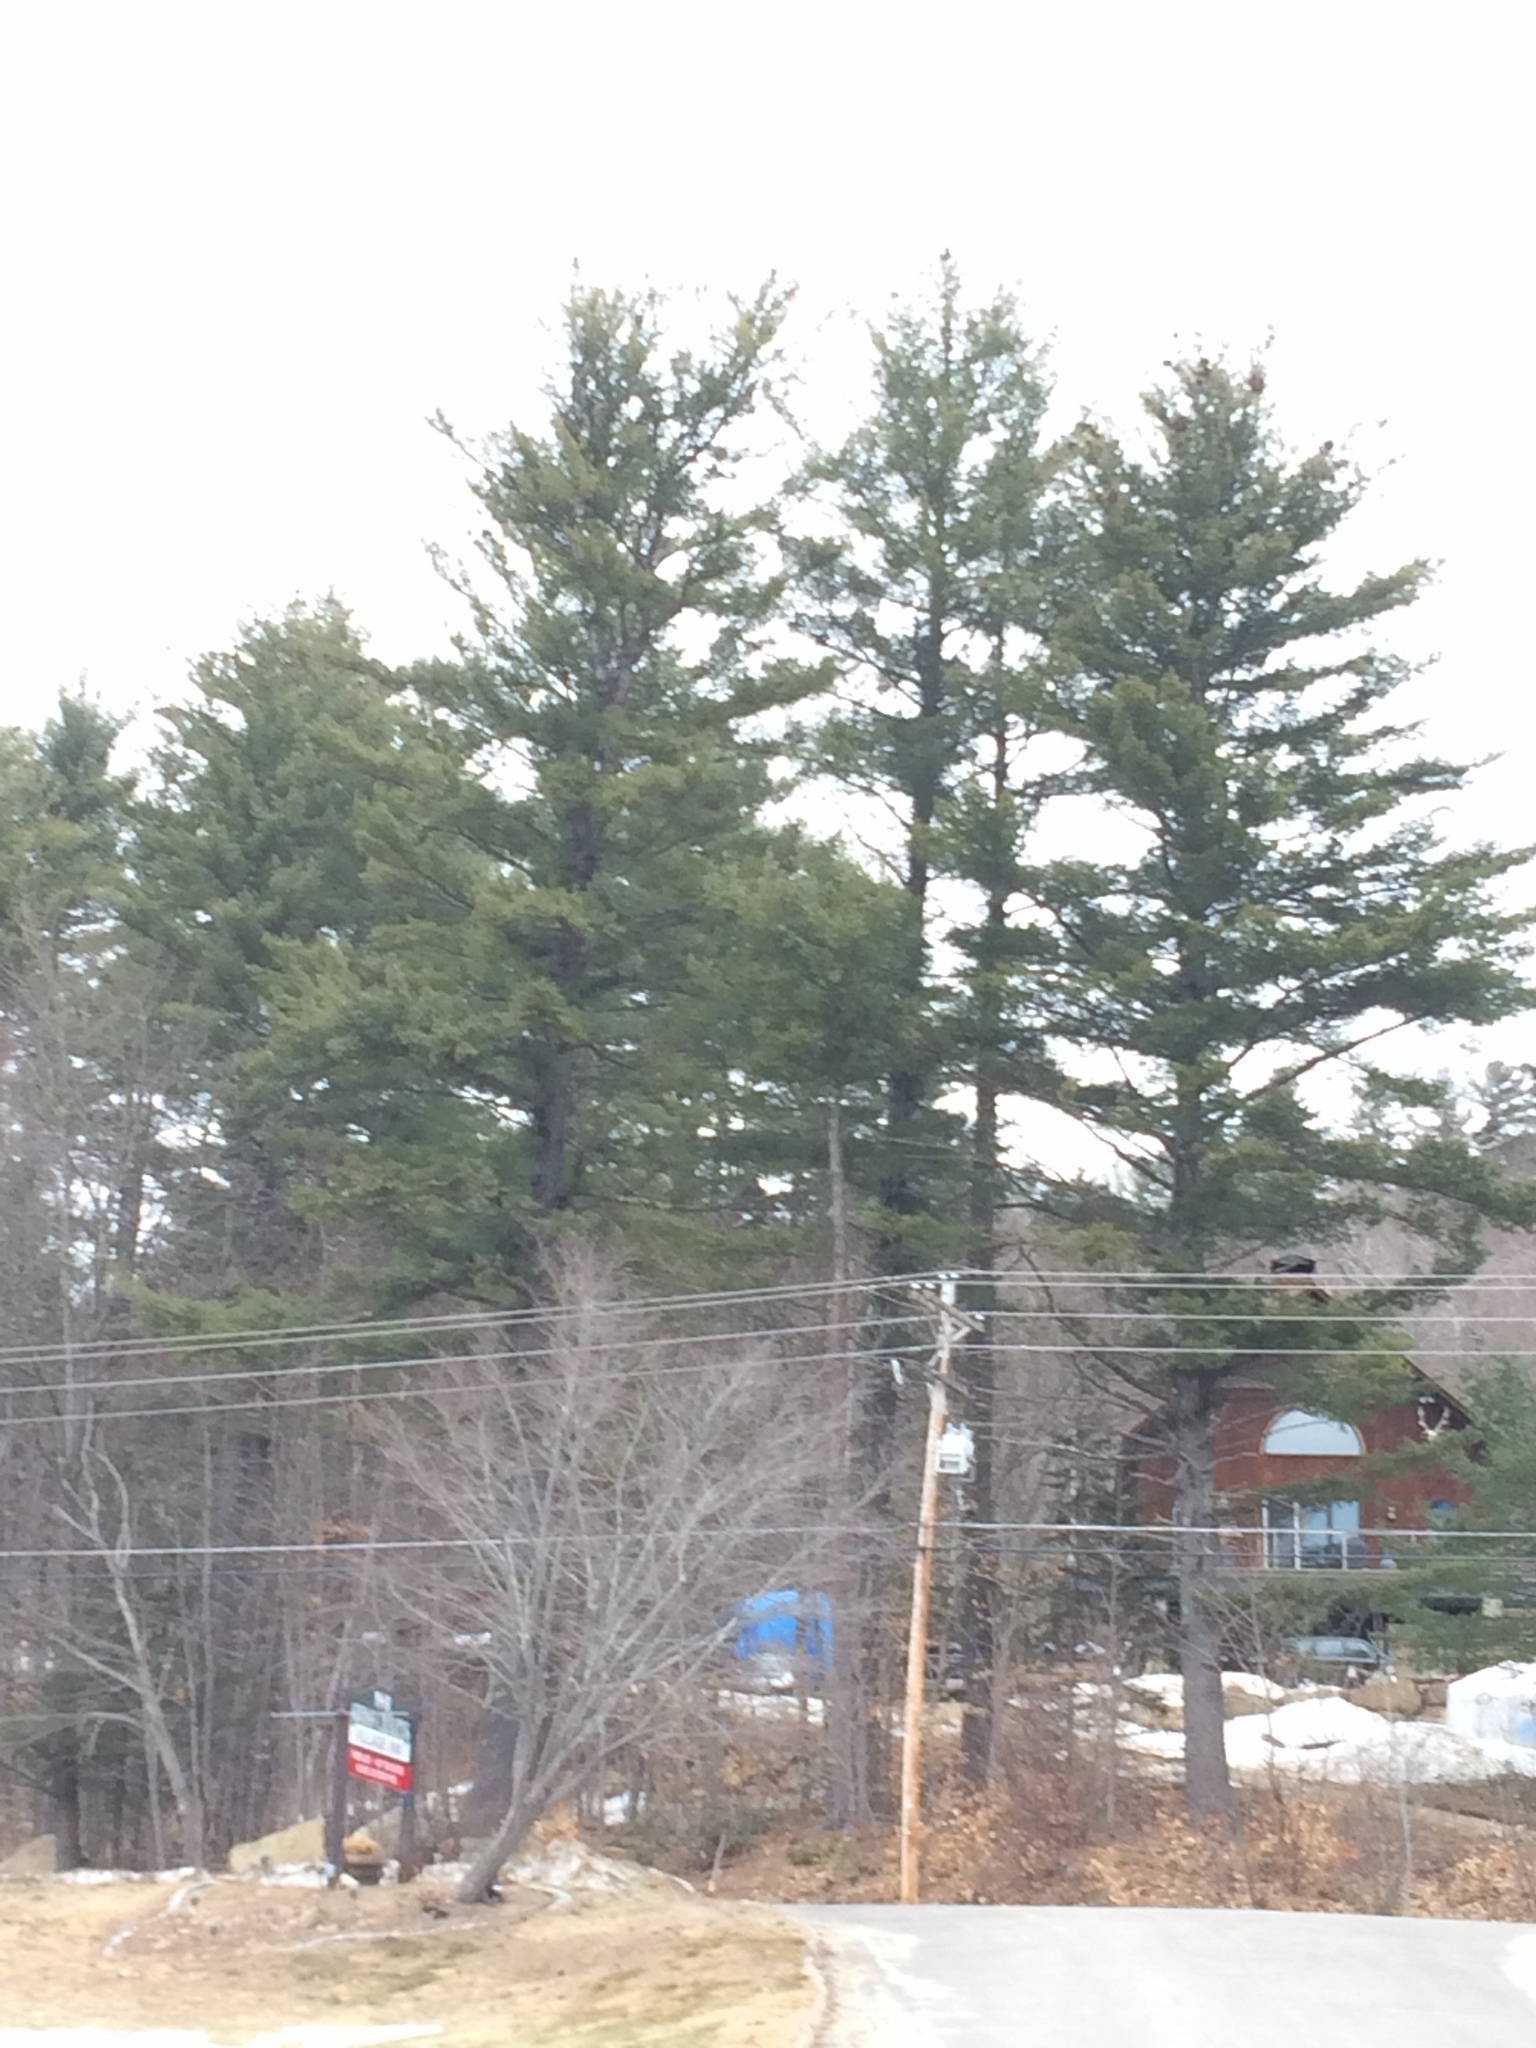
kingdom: Plantae
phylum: Tracheophyta
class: Pinopsida
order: Pinales
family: Pinaceae
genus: Pinus
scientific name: Pinus strobus
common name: Weymouth pine
